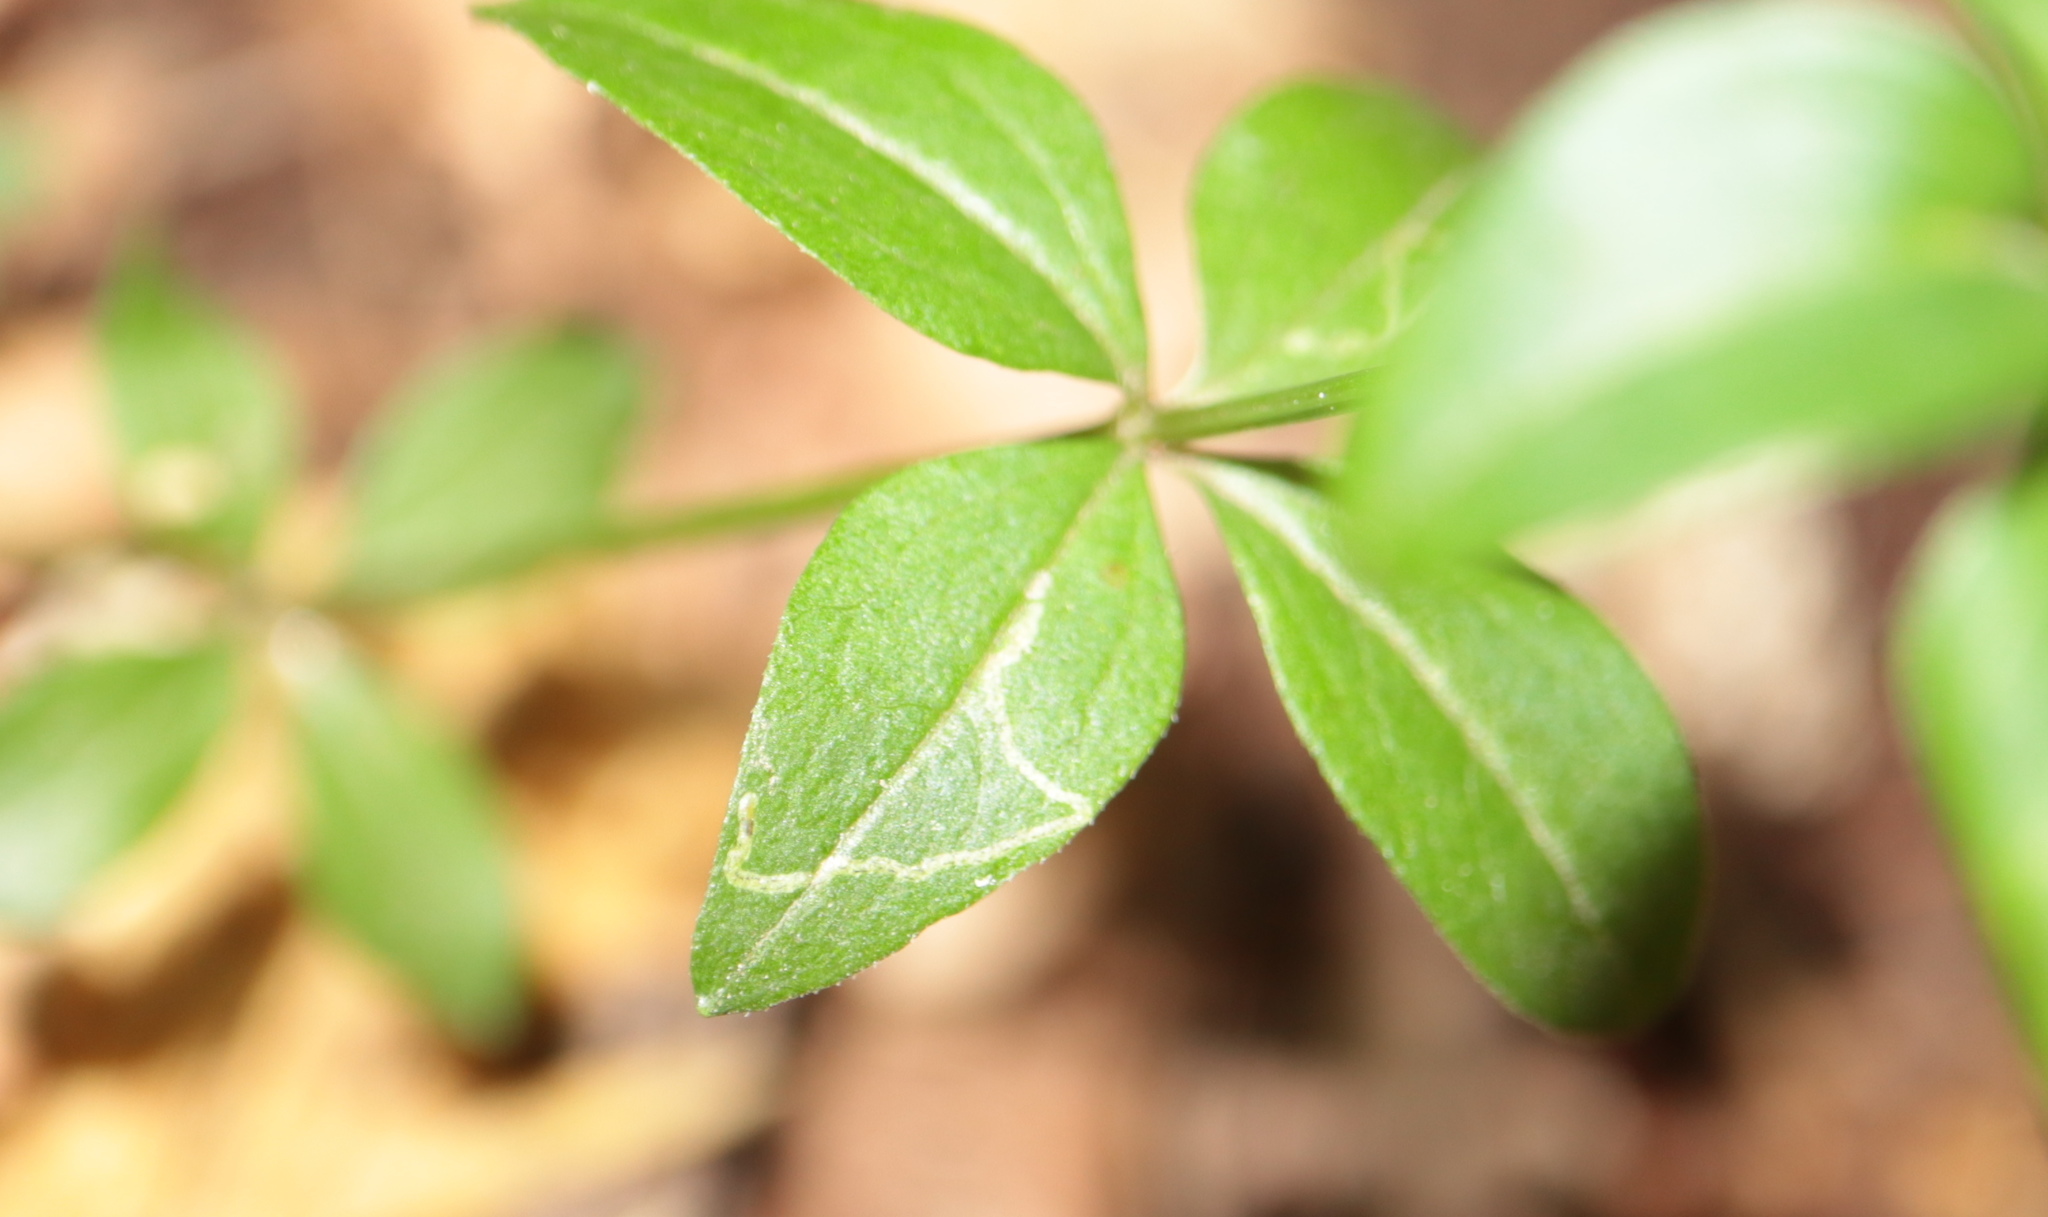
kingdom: Animalia
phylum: Arthropoda
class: Insecta
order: Diptera
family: Agromyzidae
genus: Liriomyza
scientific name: Liriomyza galiivora
